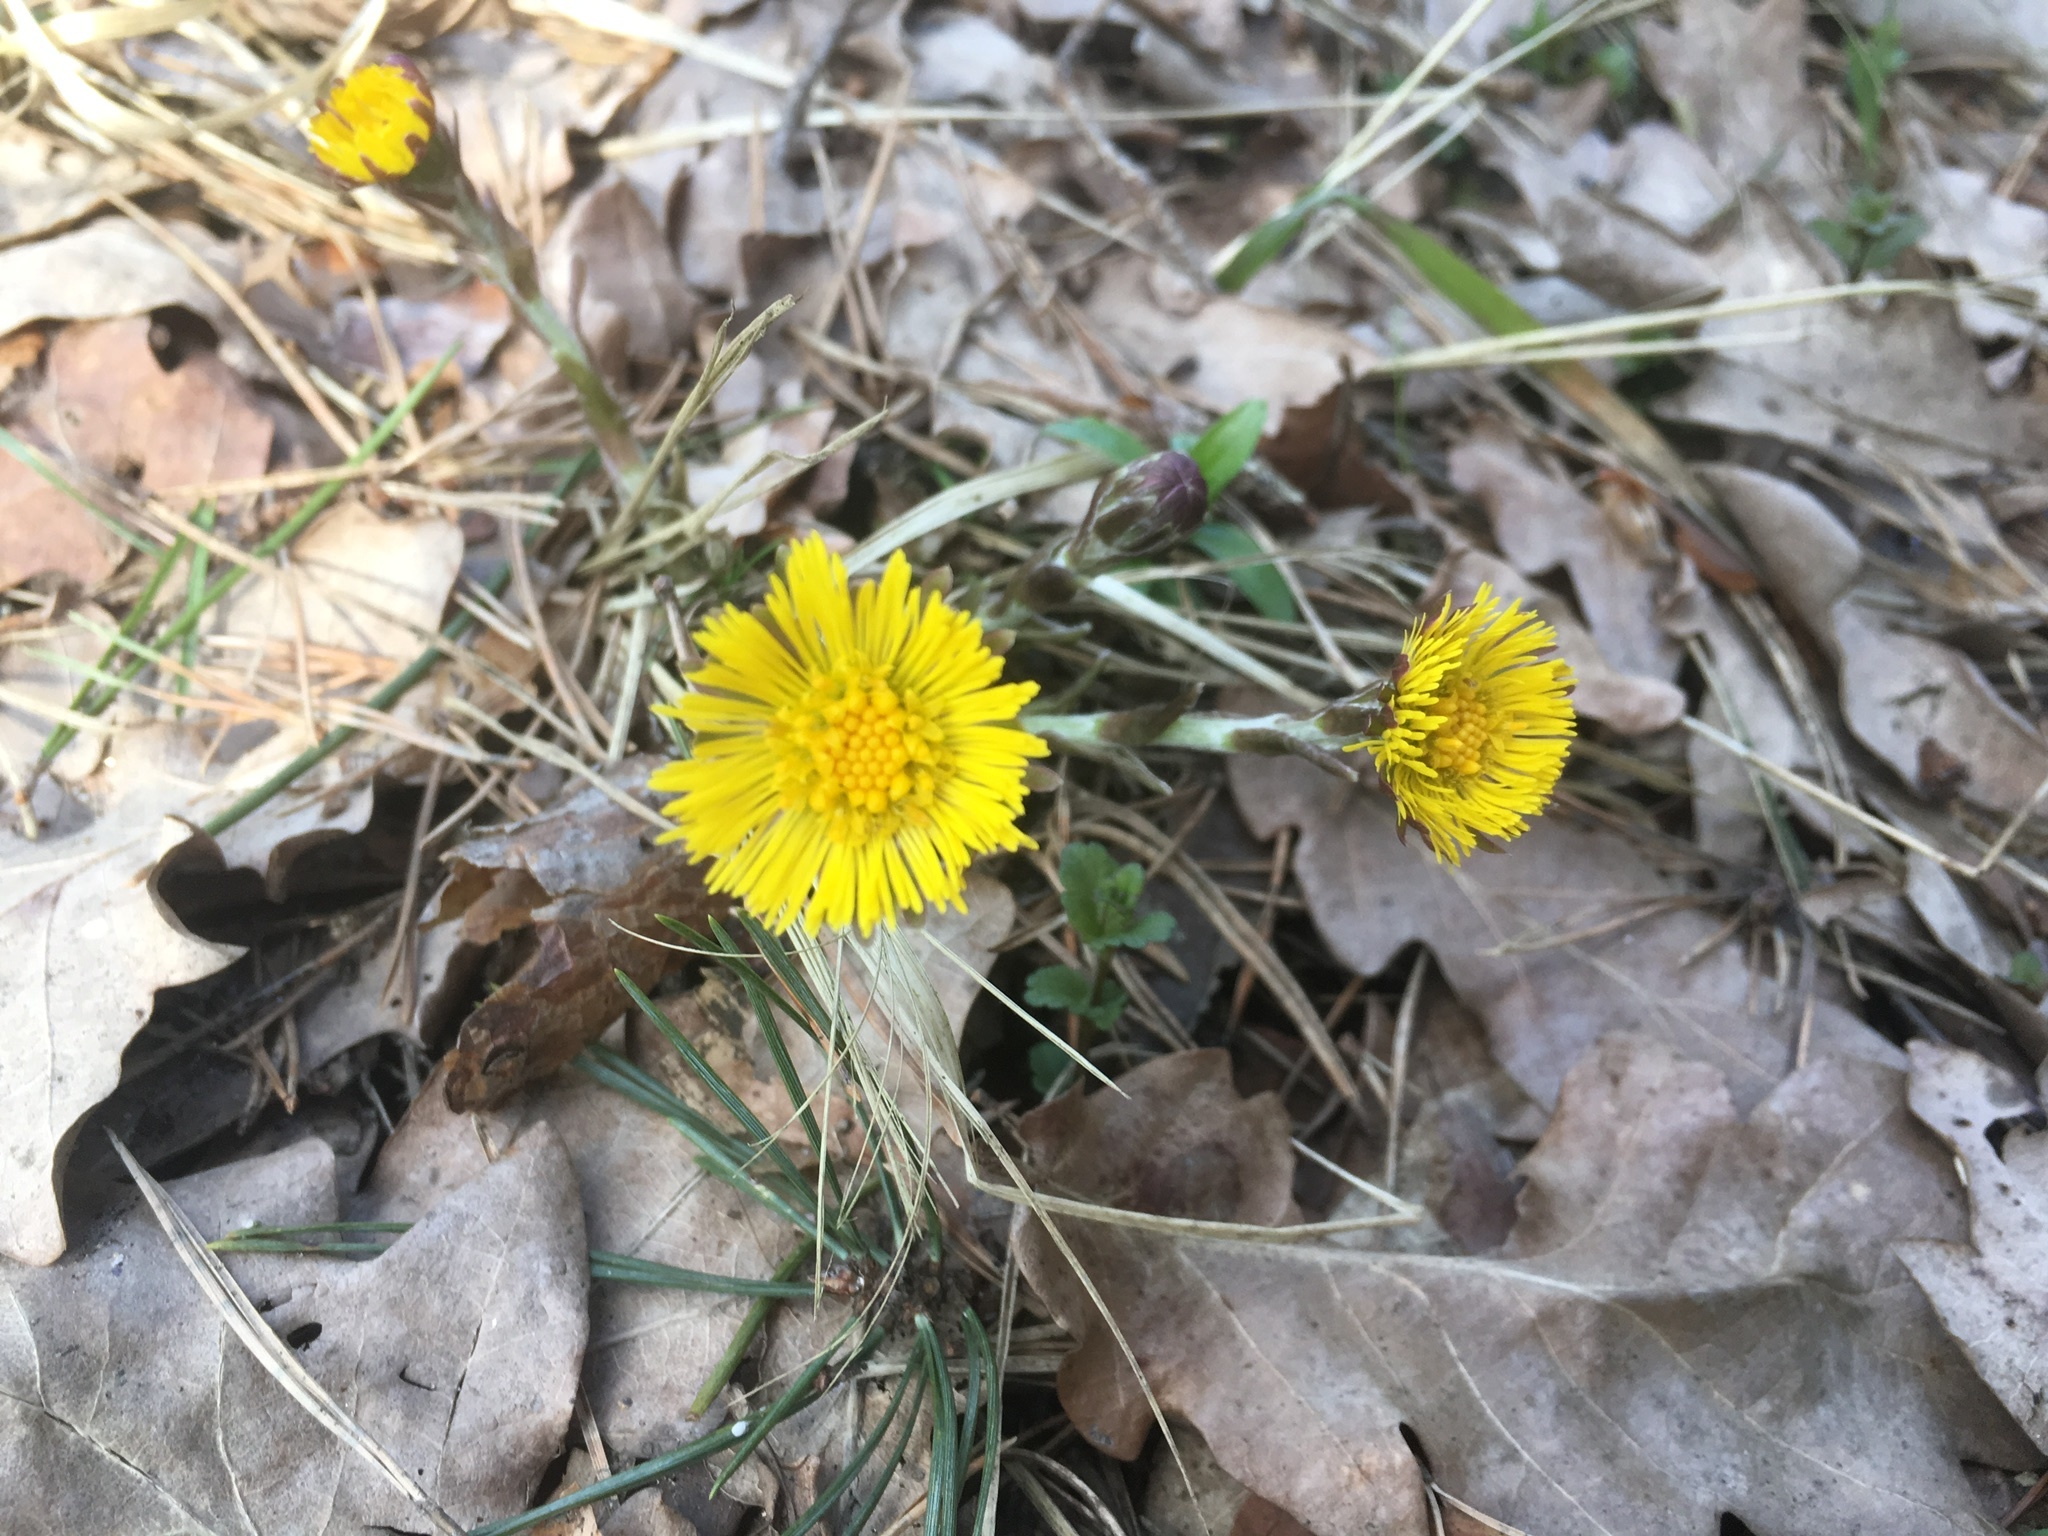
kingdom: Plantae
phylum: Tracheophyta
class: Magnoliopsida
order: Asterales
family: Asteraceae
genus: Tussilago
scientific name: Tussilago farfara
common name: Coltsfoot
